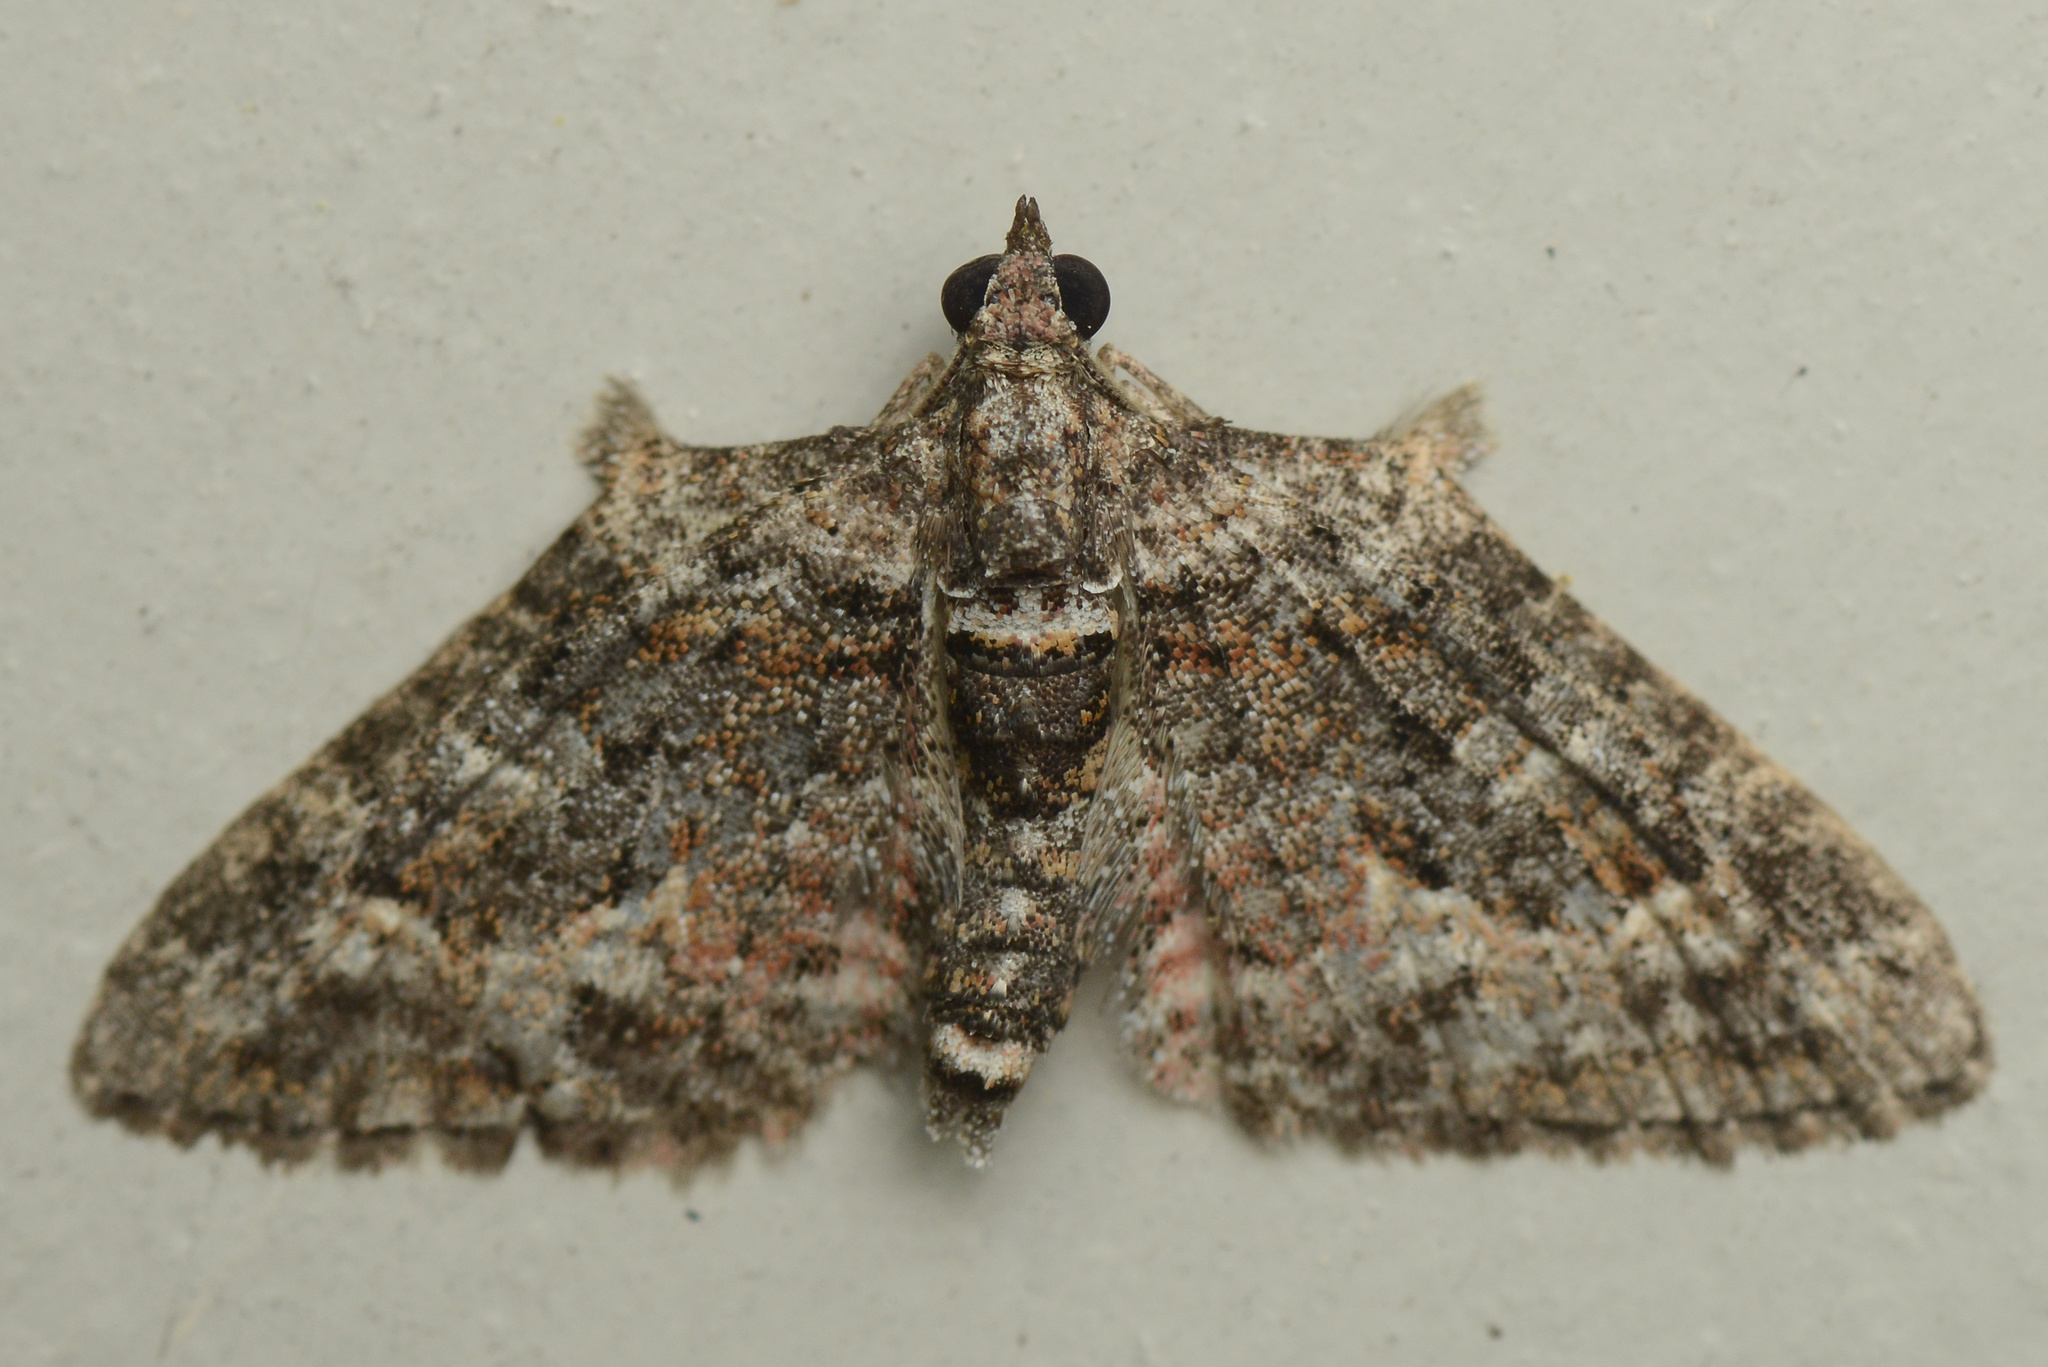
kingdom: Animalia
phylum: Arthropoda
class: Insecta
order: Lepidoptera
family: Geometridae
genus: Phrissogonus
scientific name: Phrissogonus laticostata
